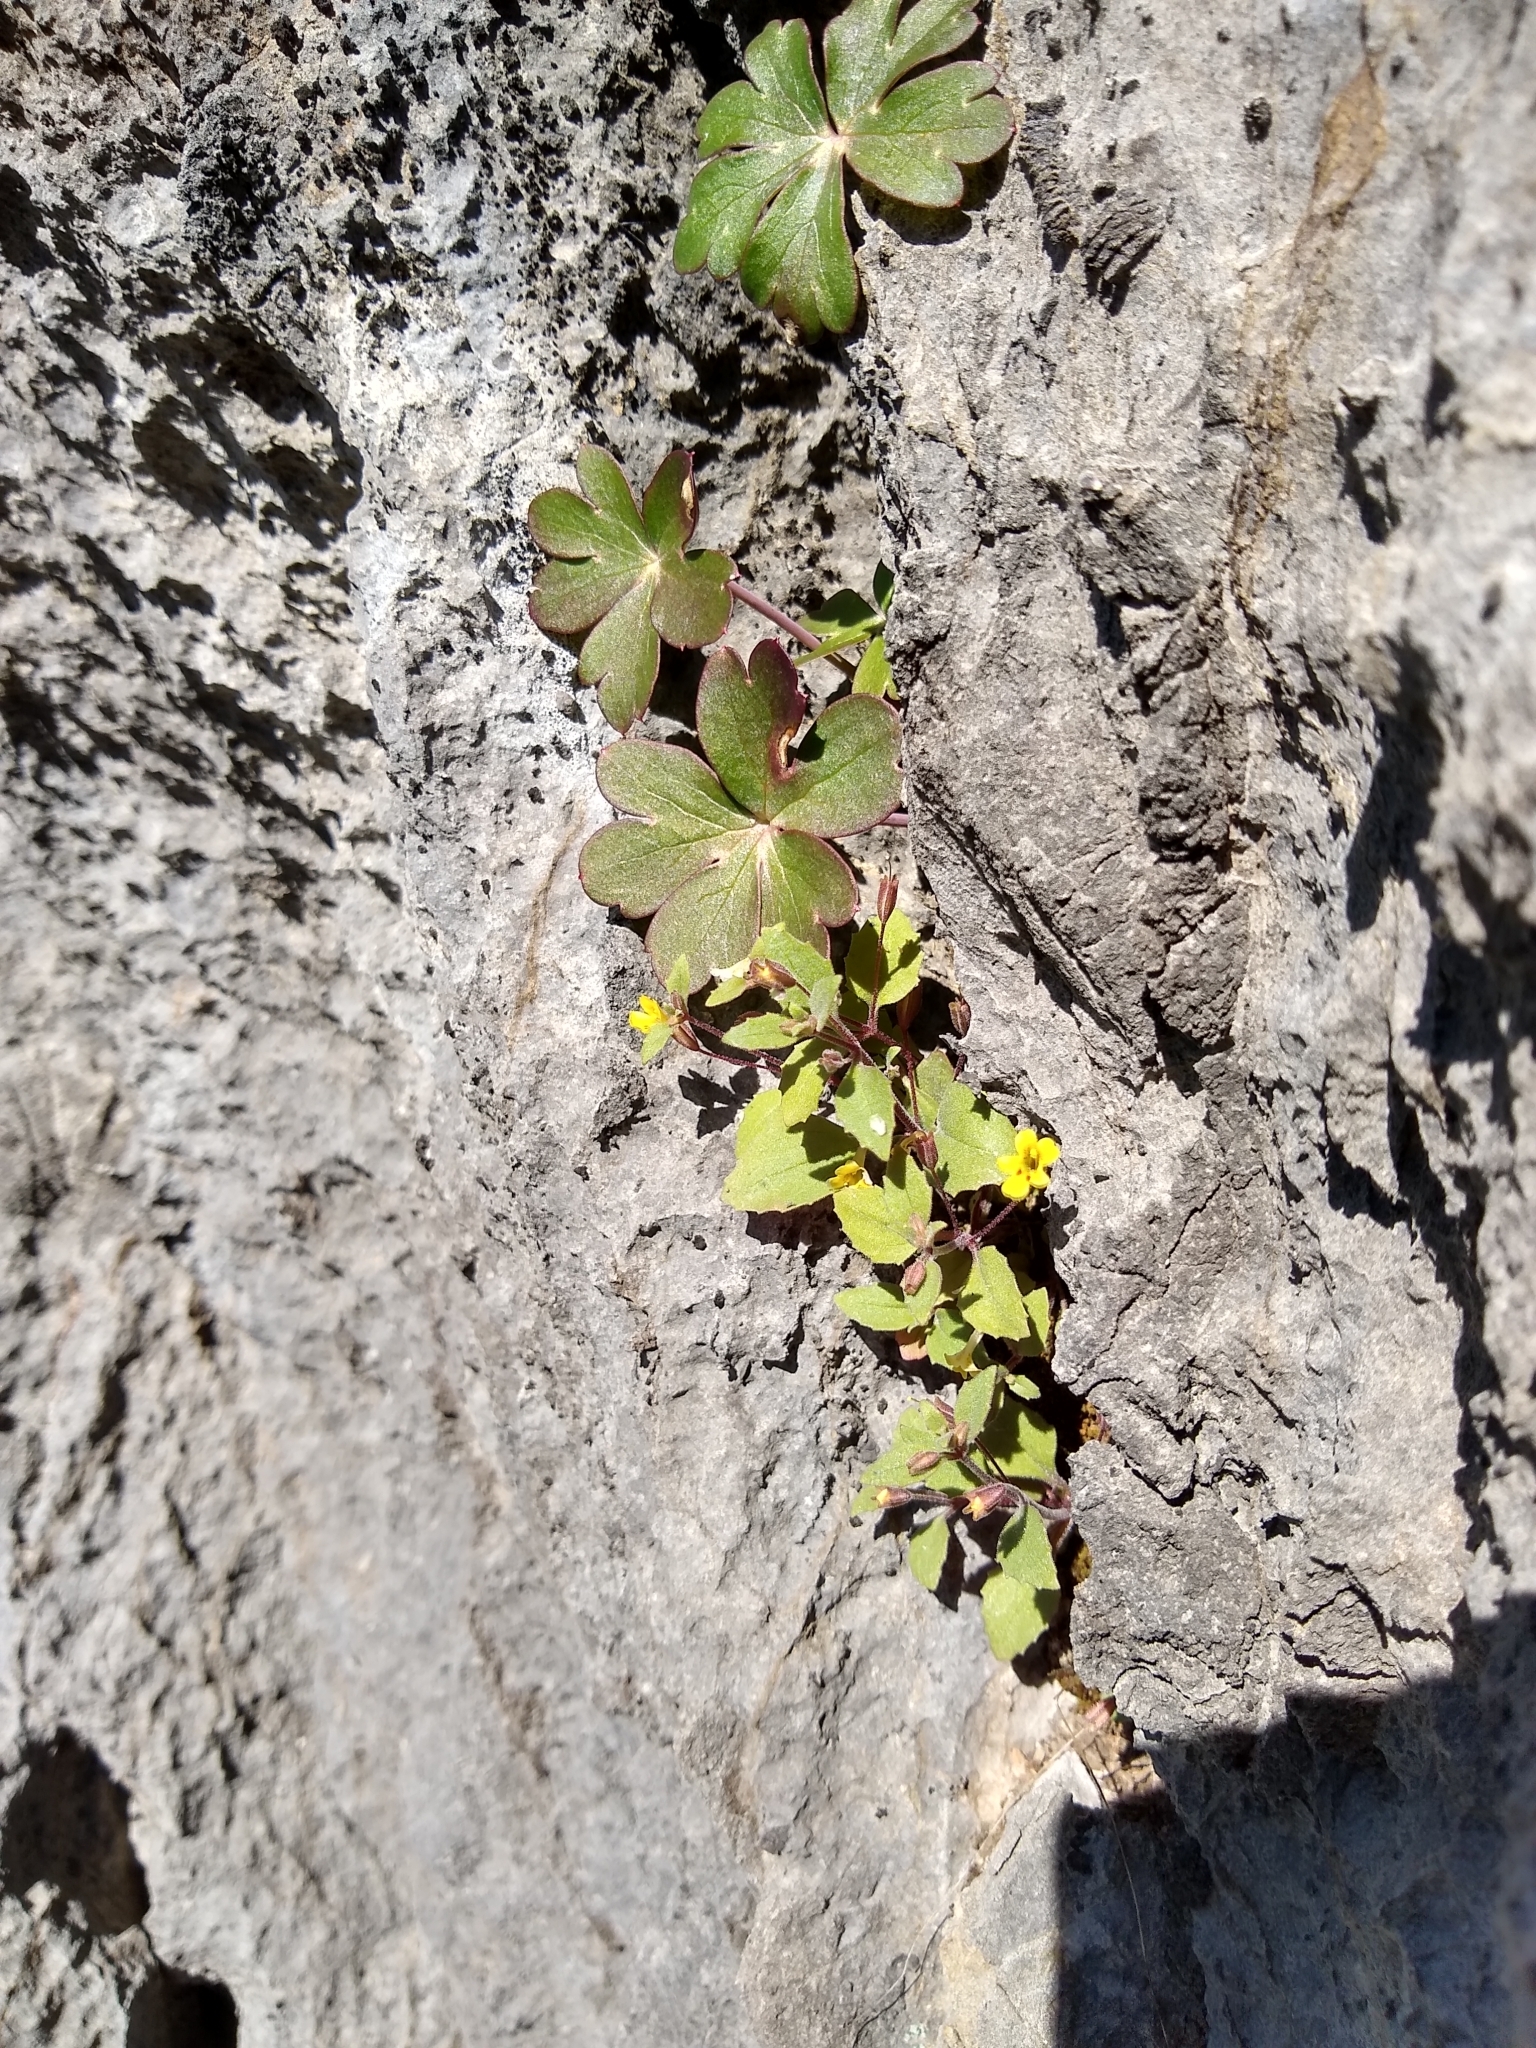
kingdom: Plantae
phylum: Tracheophyta
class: Magnoliopsida
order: Lamiales
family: Phrymaceae
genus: Erythranthe
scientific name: Erythranthe taylorii
